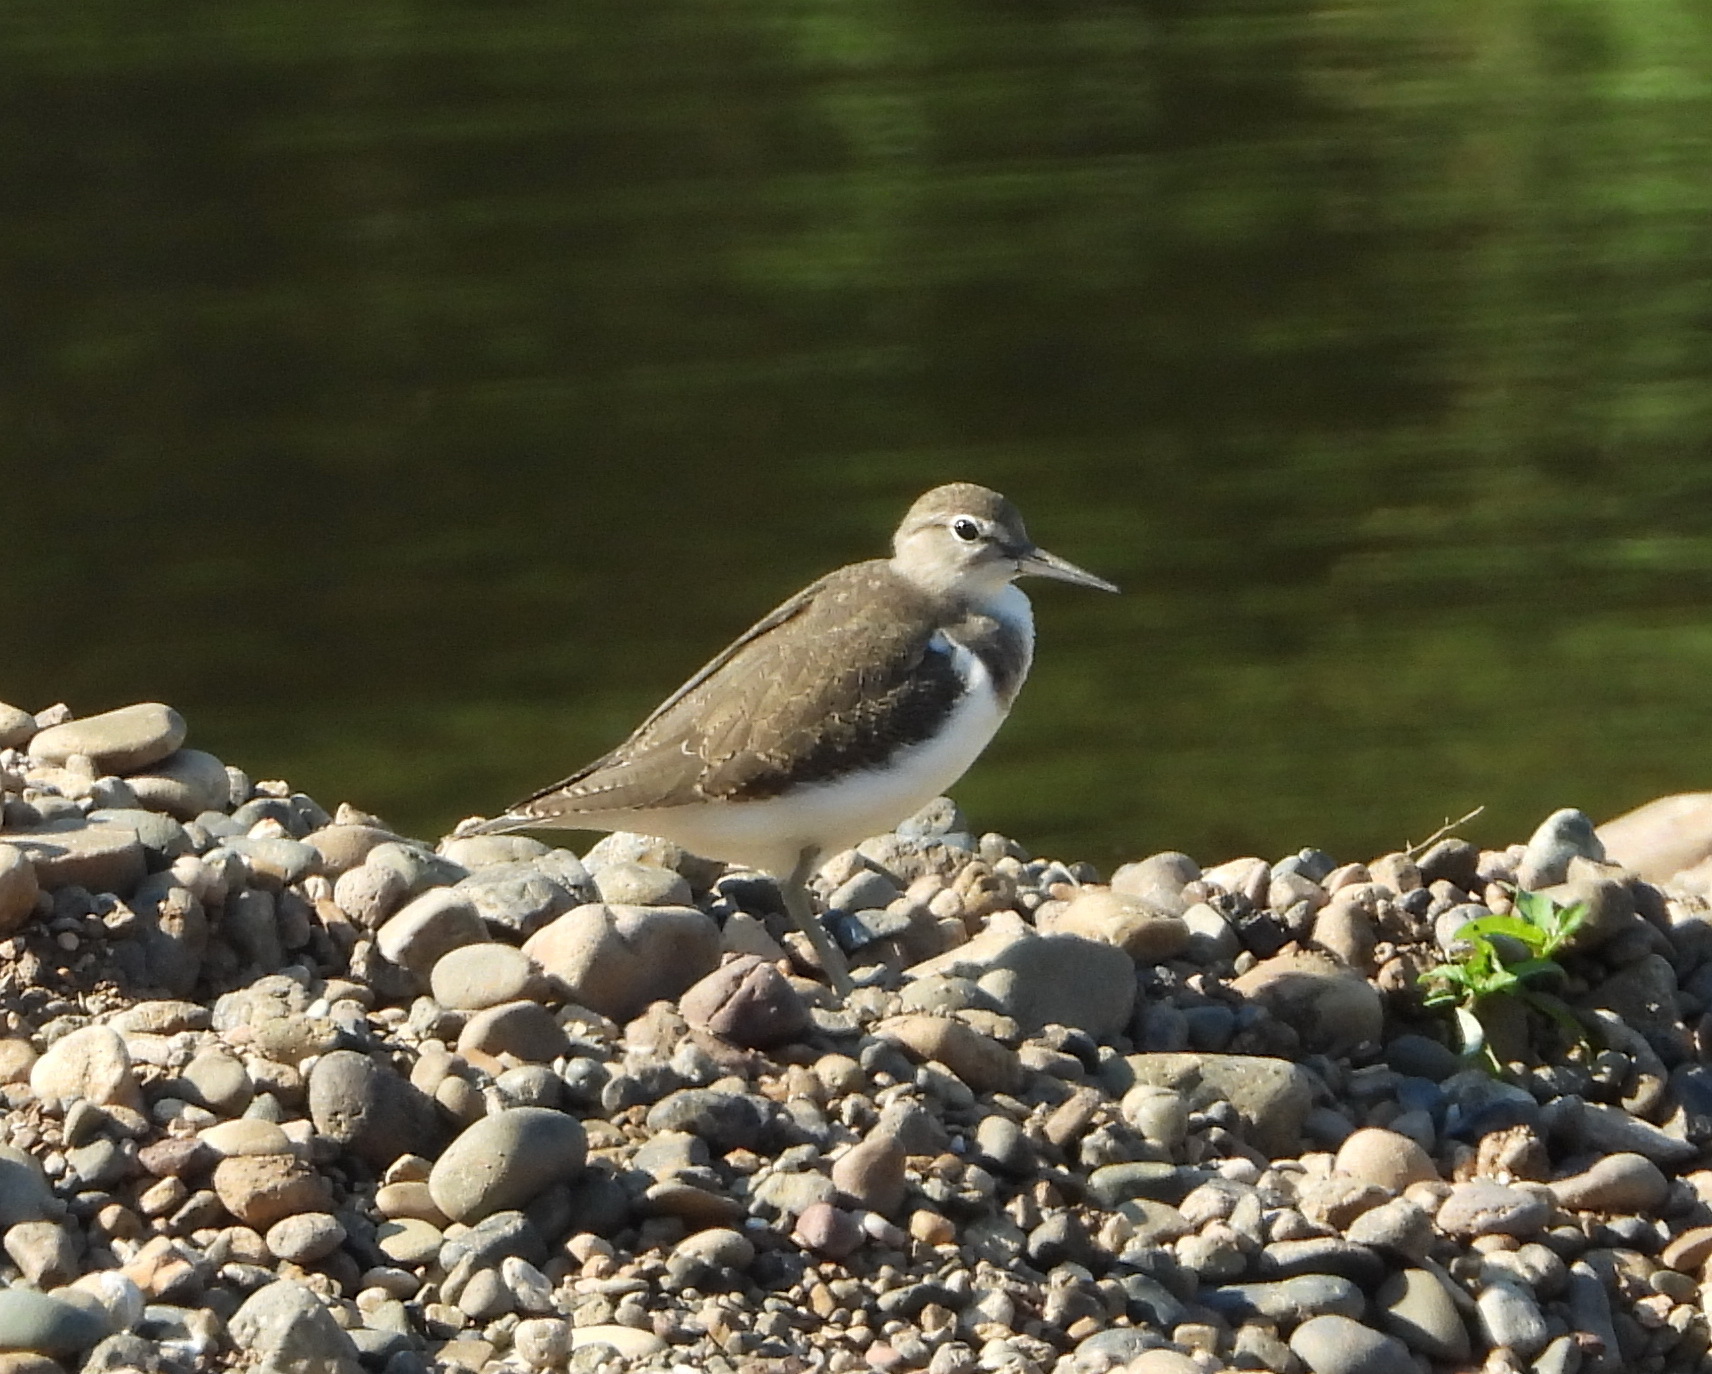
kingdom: Animalia
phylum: Chordata
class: Aves
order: Charadriiformes
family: Scolopacidae
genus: Actitis
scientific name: Actitis hypoleucos
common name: Common sandpiper
